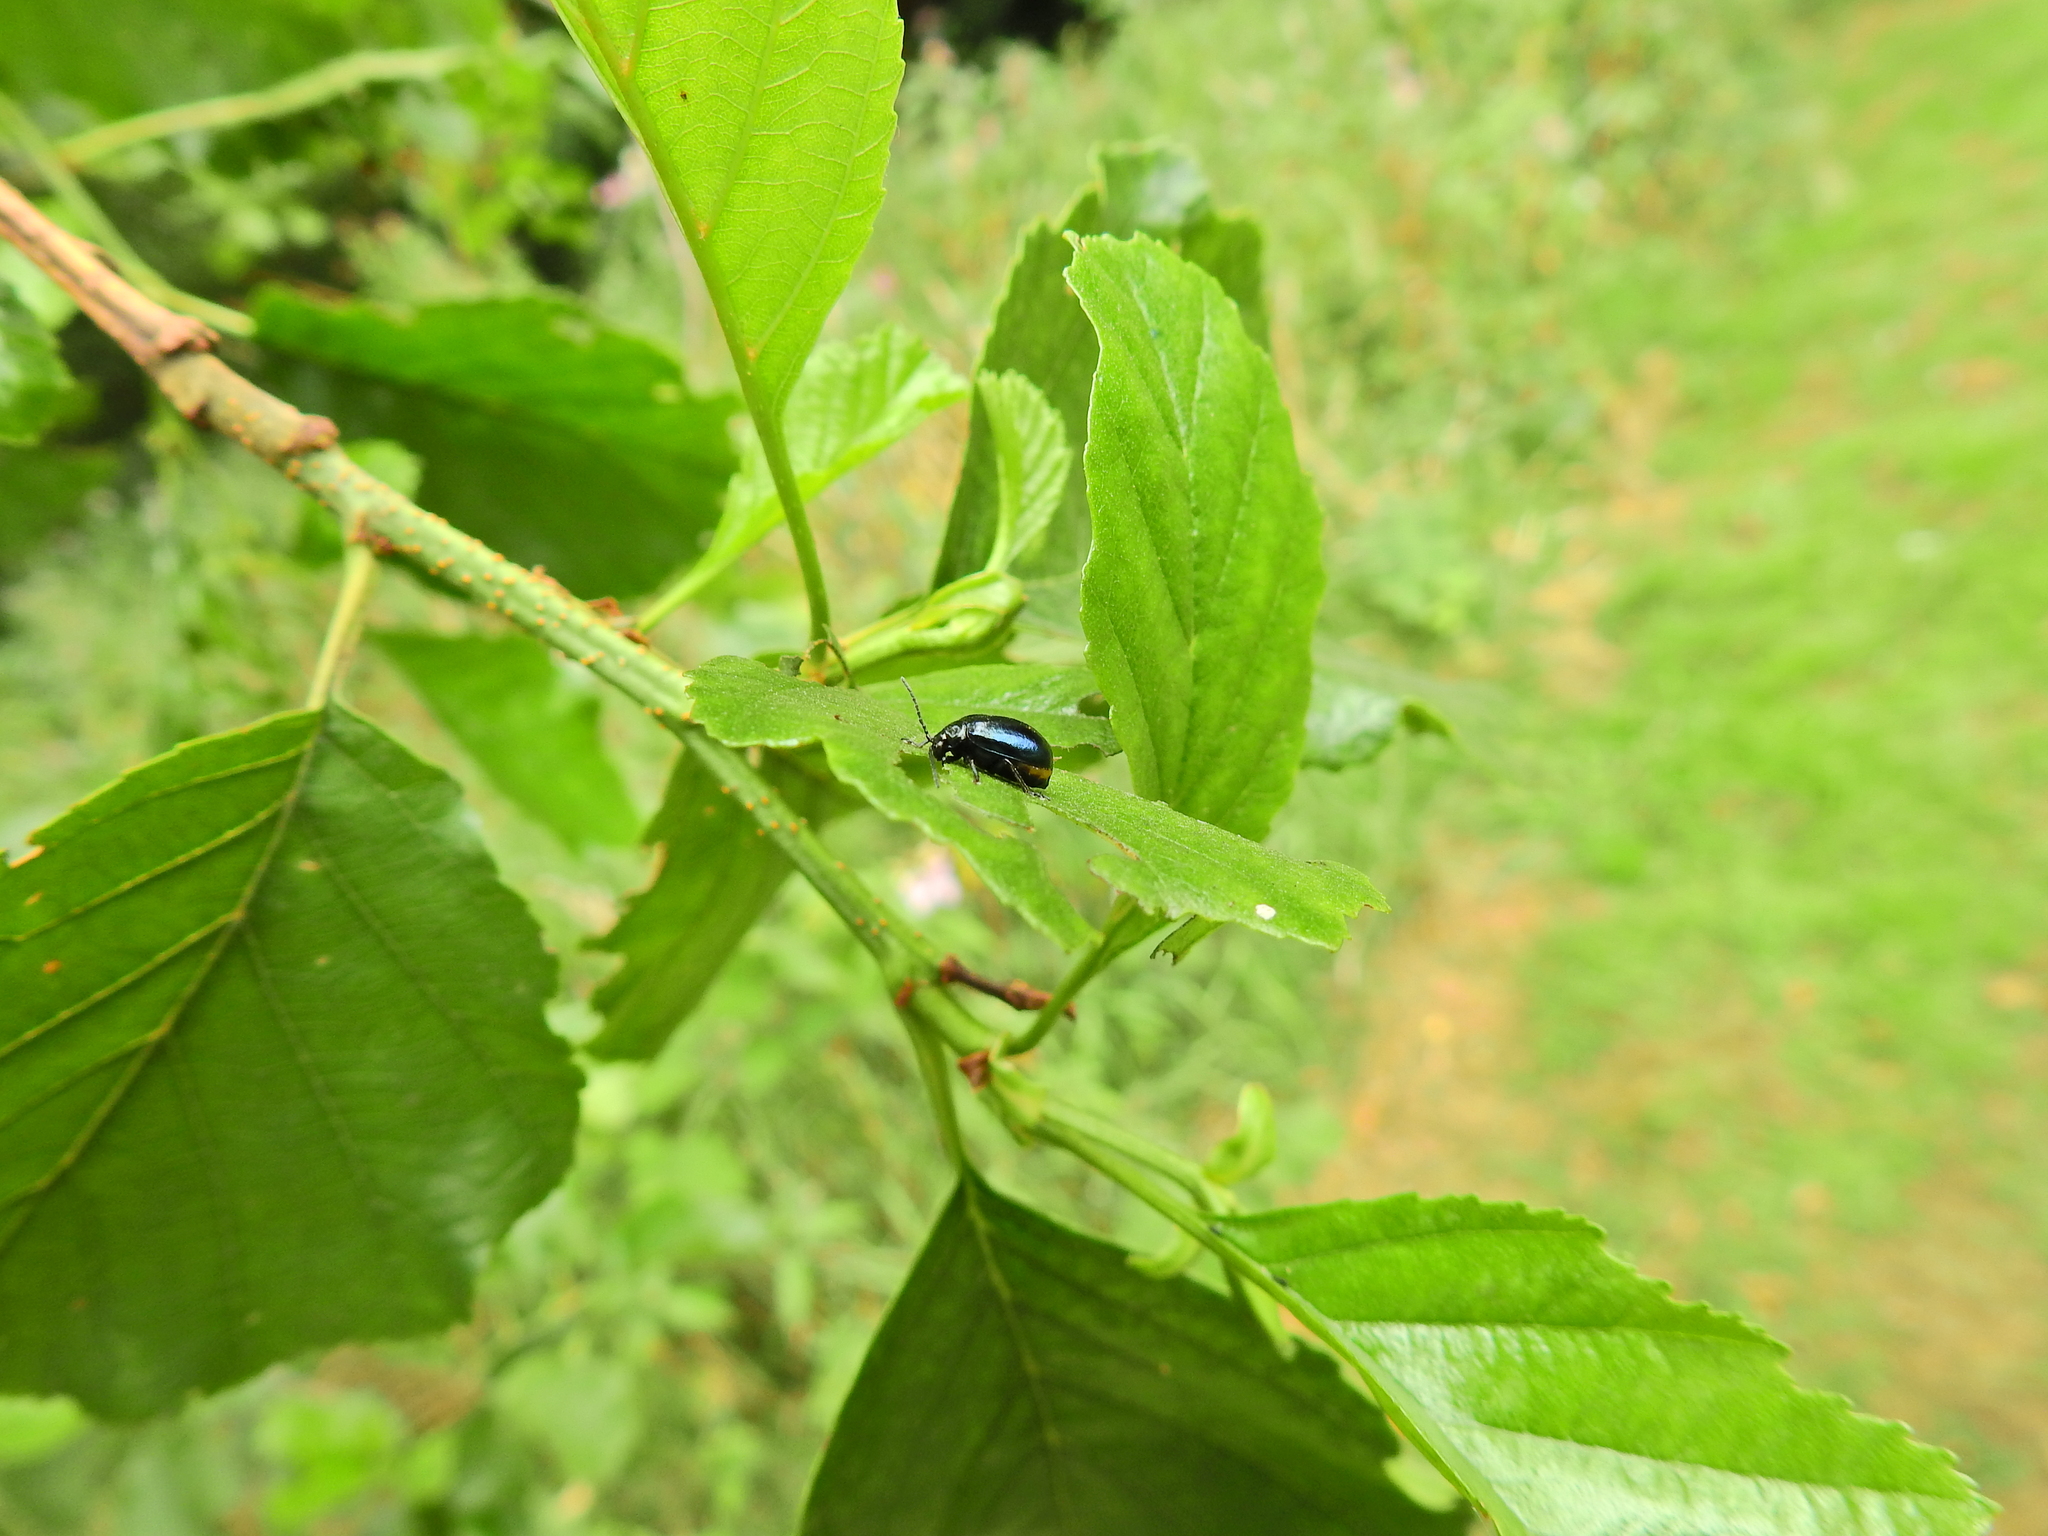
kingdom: Animalia
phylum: Arthropoda
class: Insecta
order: Coleoptera
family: Chrysomelidae
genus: Agelastica
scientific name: Agelastica alni
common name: Alder leaf beetle
